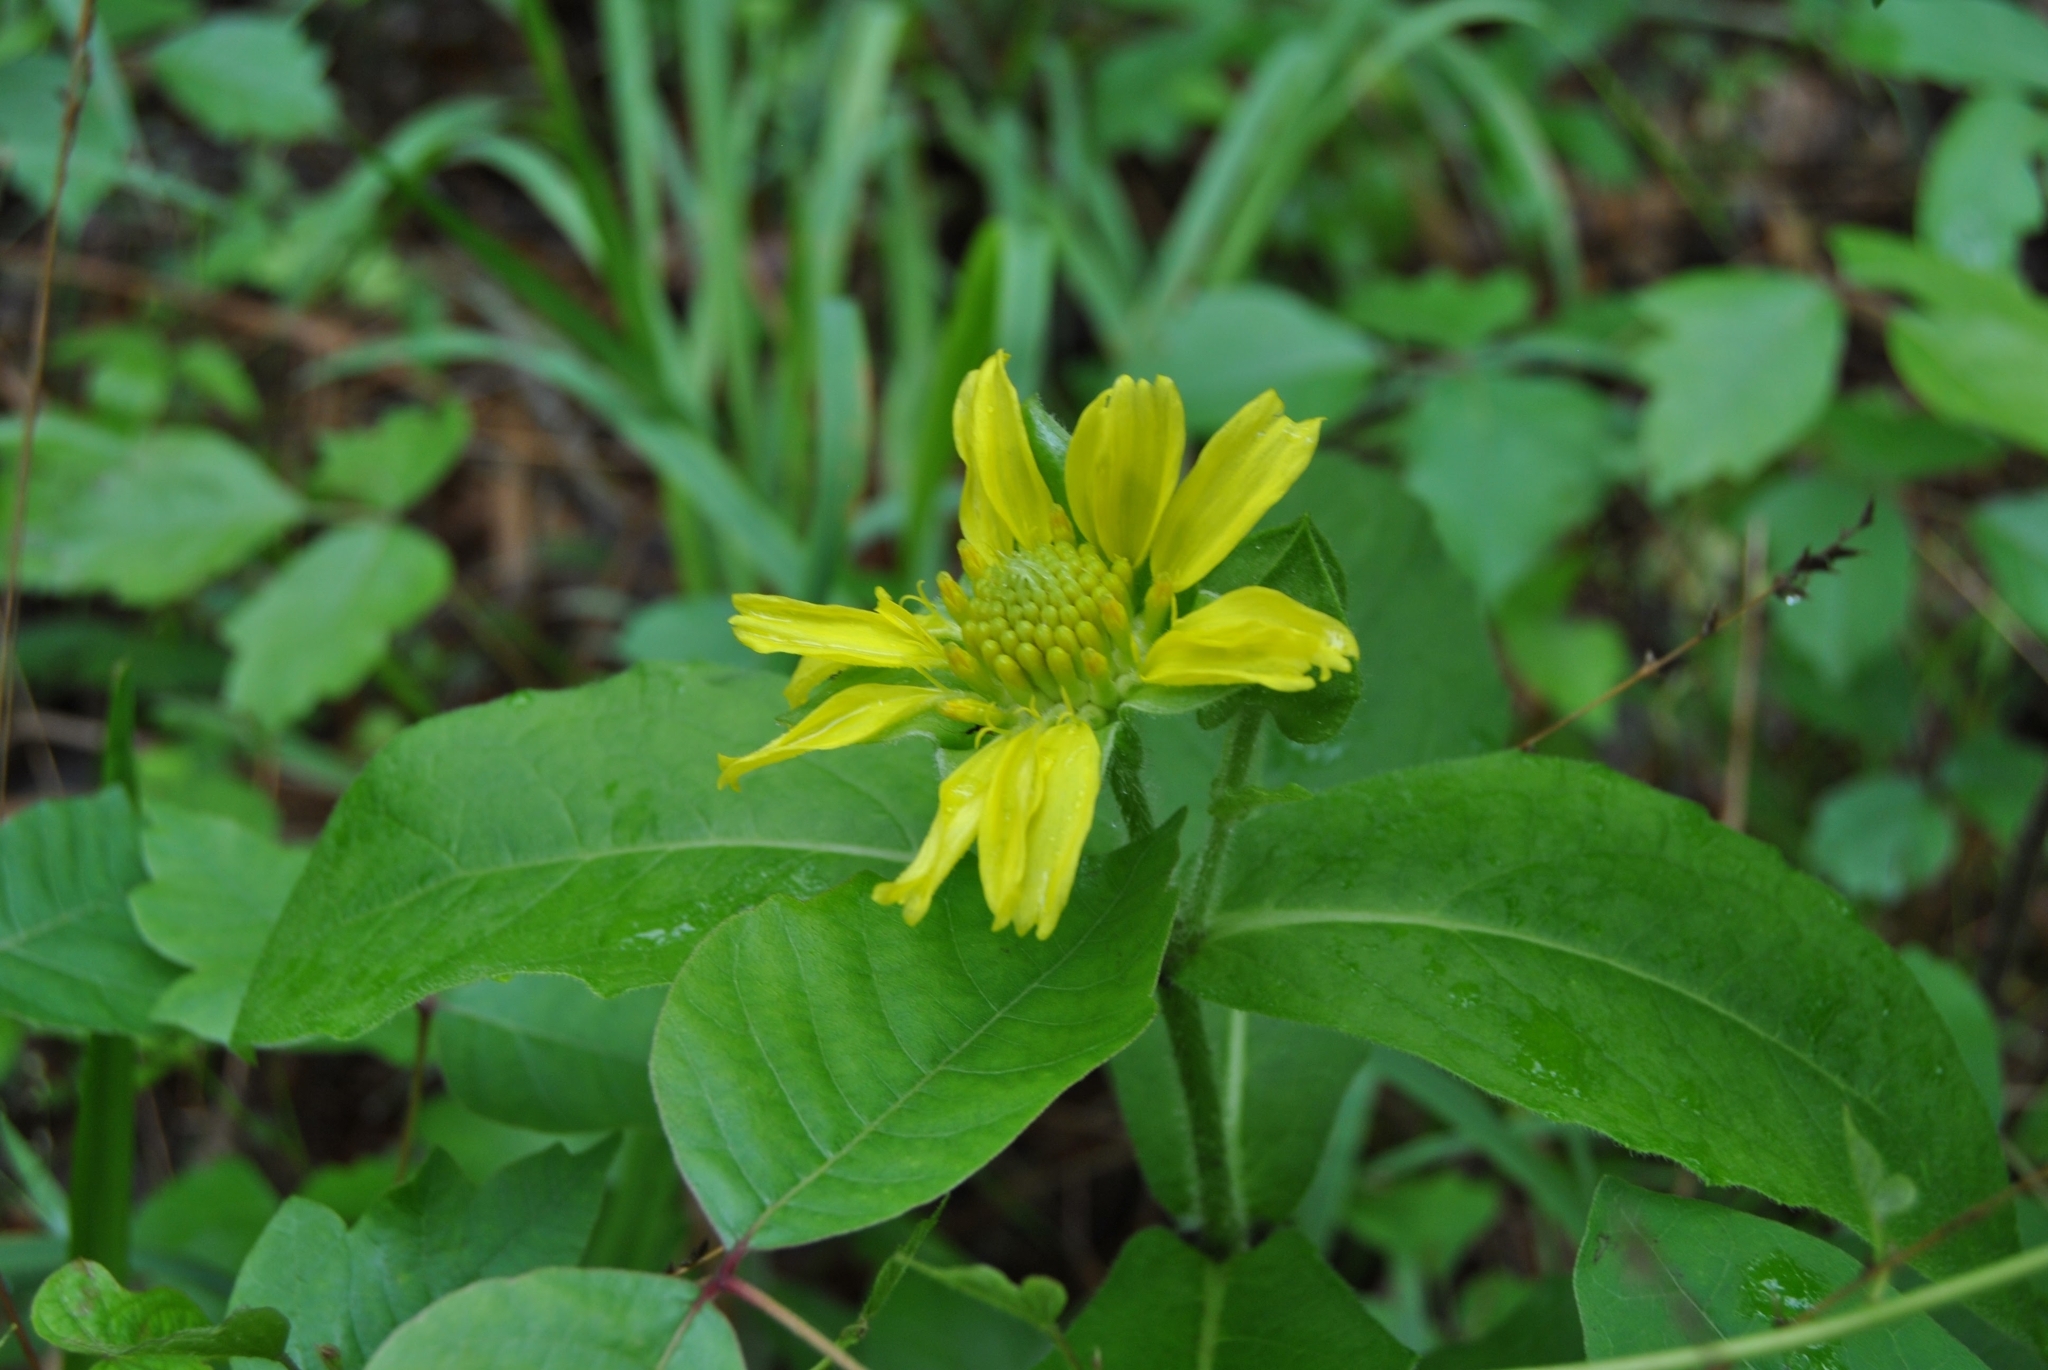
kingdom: Plantae
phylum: Tracheophyta
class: Magnoliopsida
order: Asterales
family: Asteraceae
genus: Tetragonotheca
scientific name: Tetragonotheca helianthoides
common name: Pineland-ginseng
